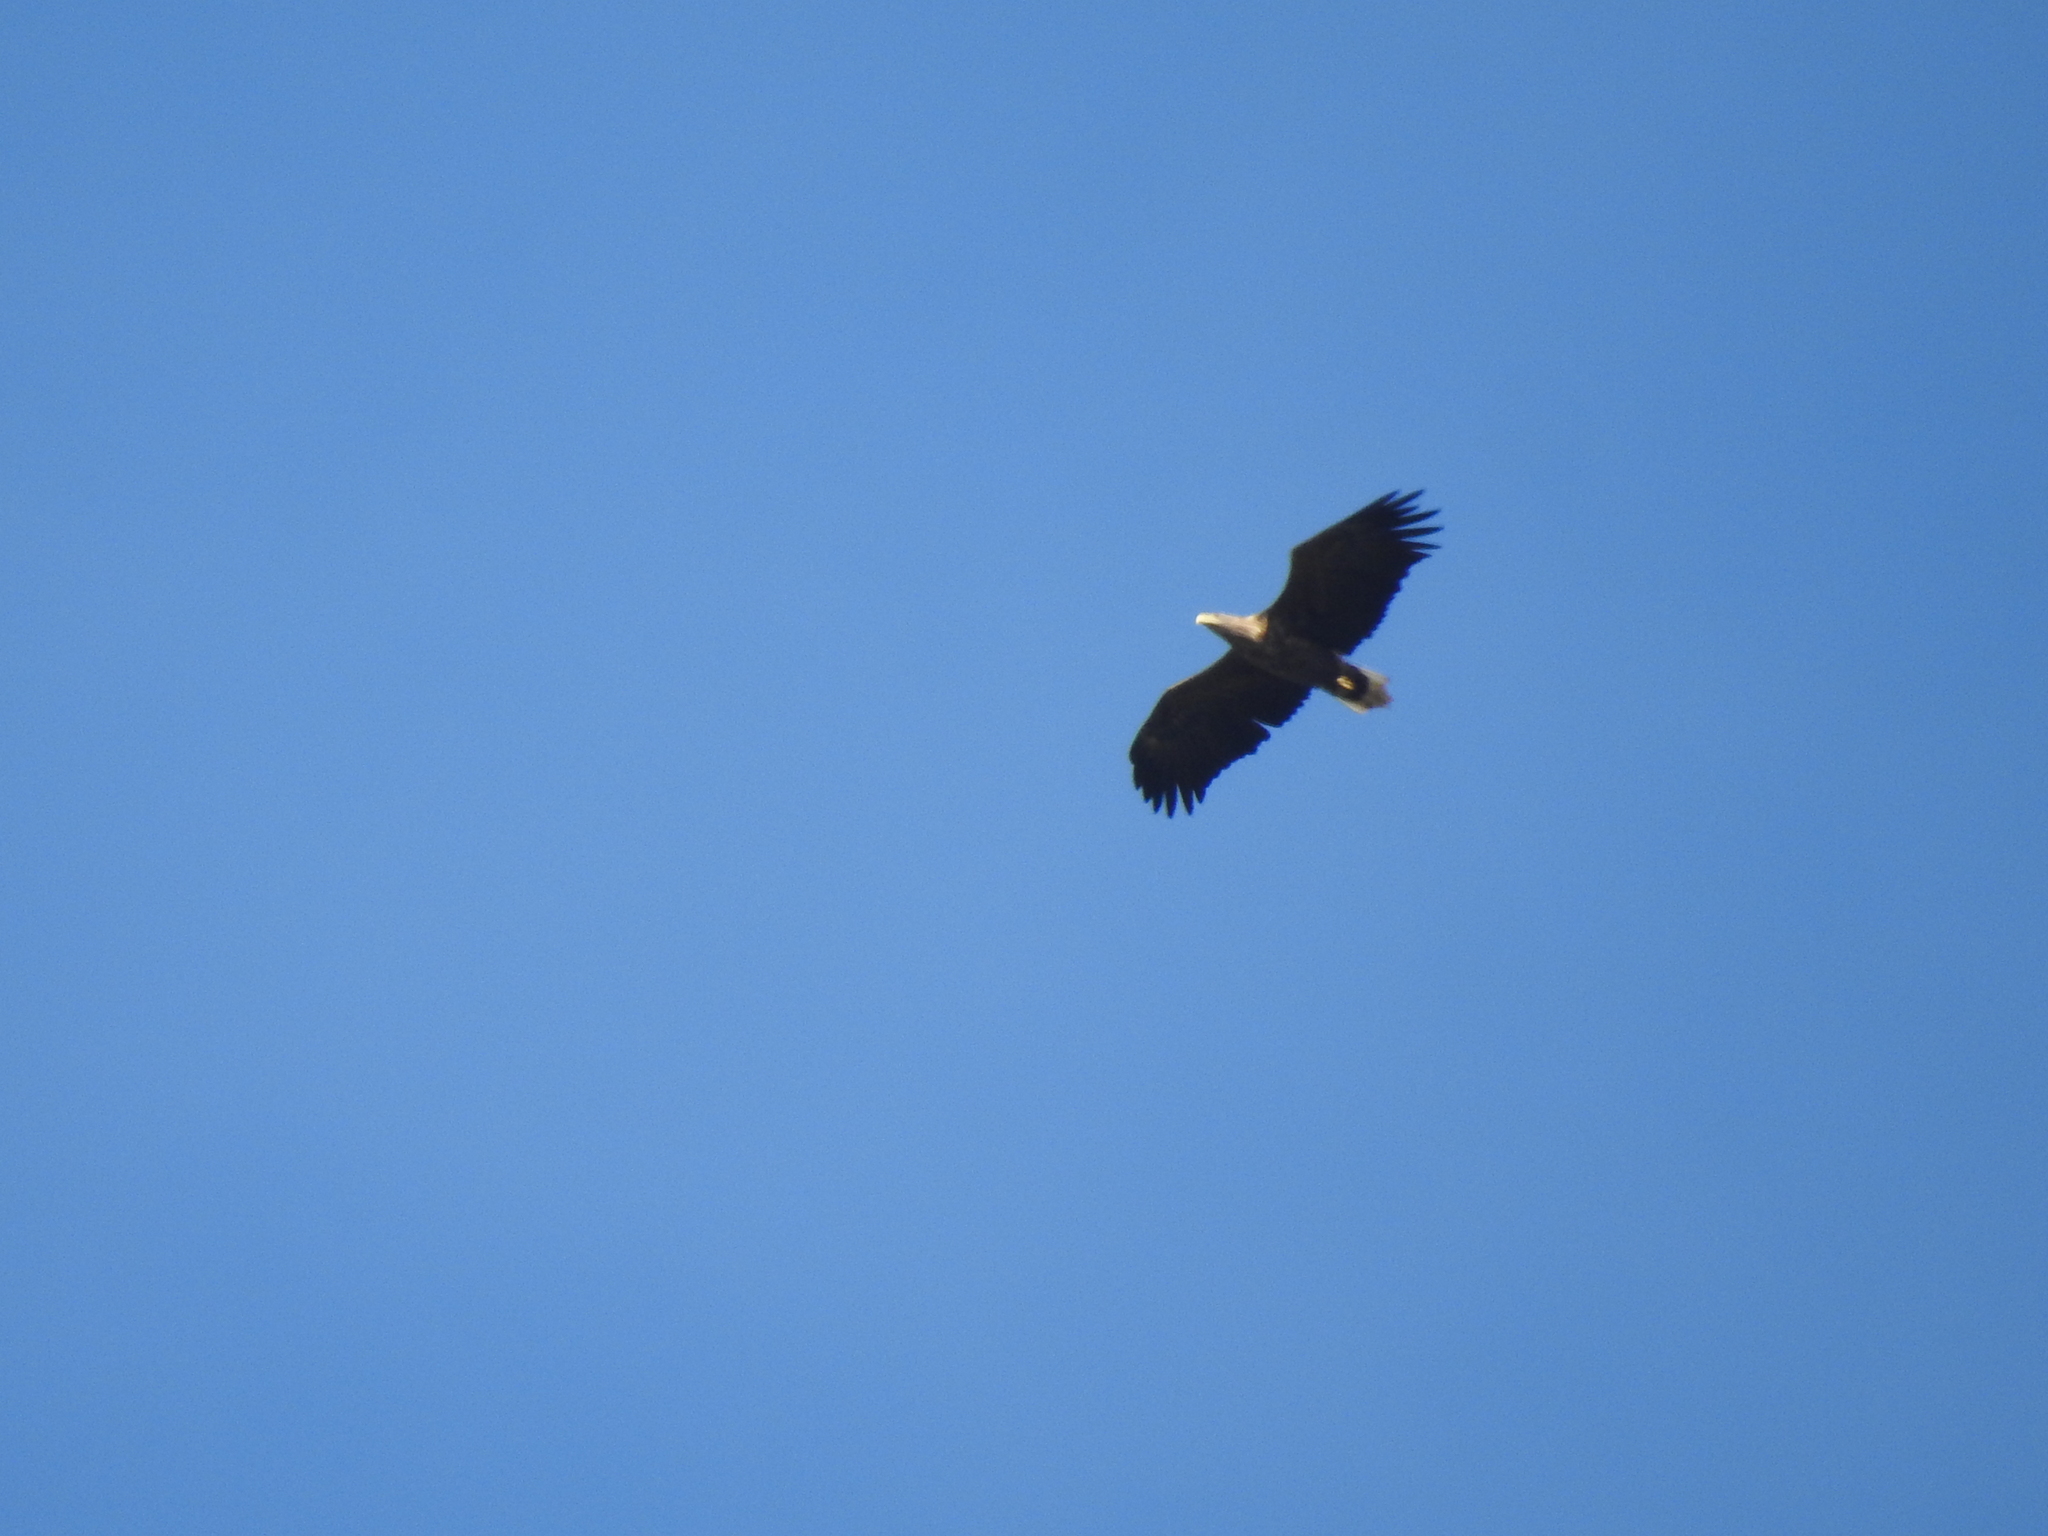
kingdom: Animalia
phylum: Chordata
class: Aves
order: Accipitriformes
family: Accipitridae
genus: Haliaeetus
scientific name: Haliaeetus albicilla
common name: White-tailed eagle
